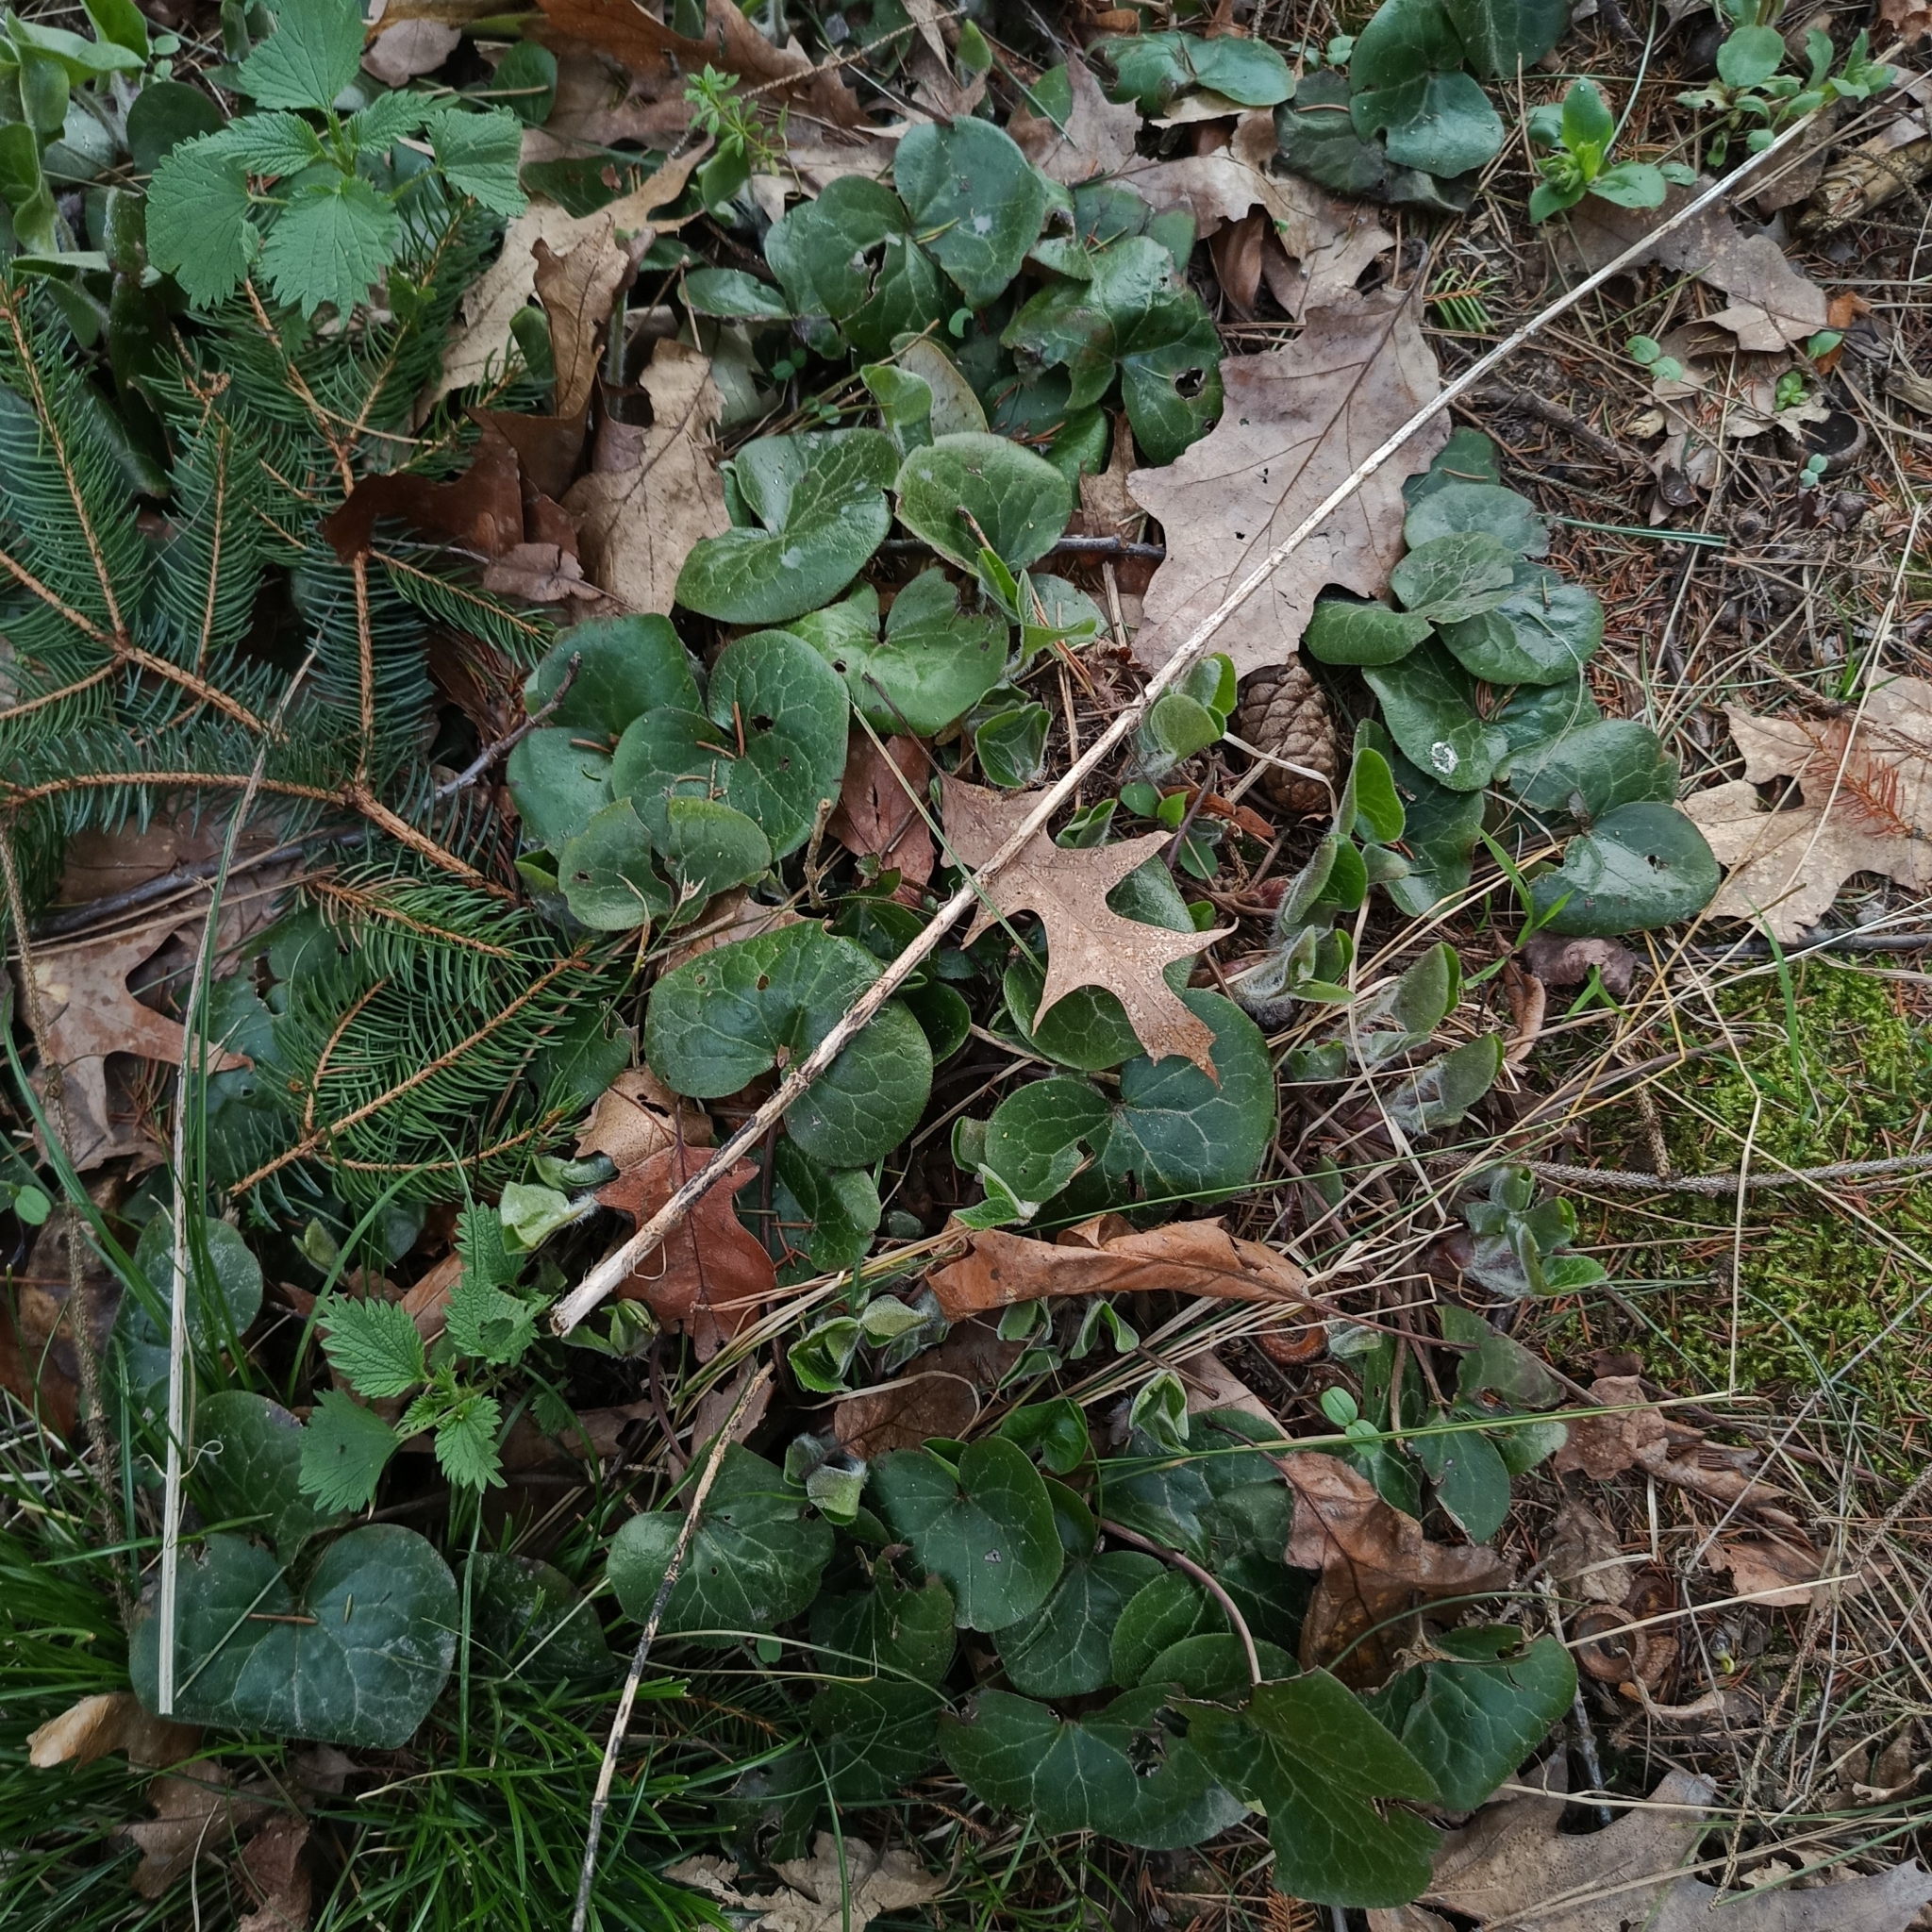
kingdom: Plantae
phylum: Tracheophyta
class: Magnoliopsida
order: Piperales
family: Aristolochiaceae
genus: Asarum
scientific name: Asarum europaeum
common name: Asarabacca
